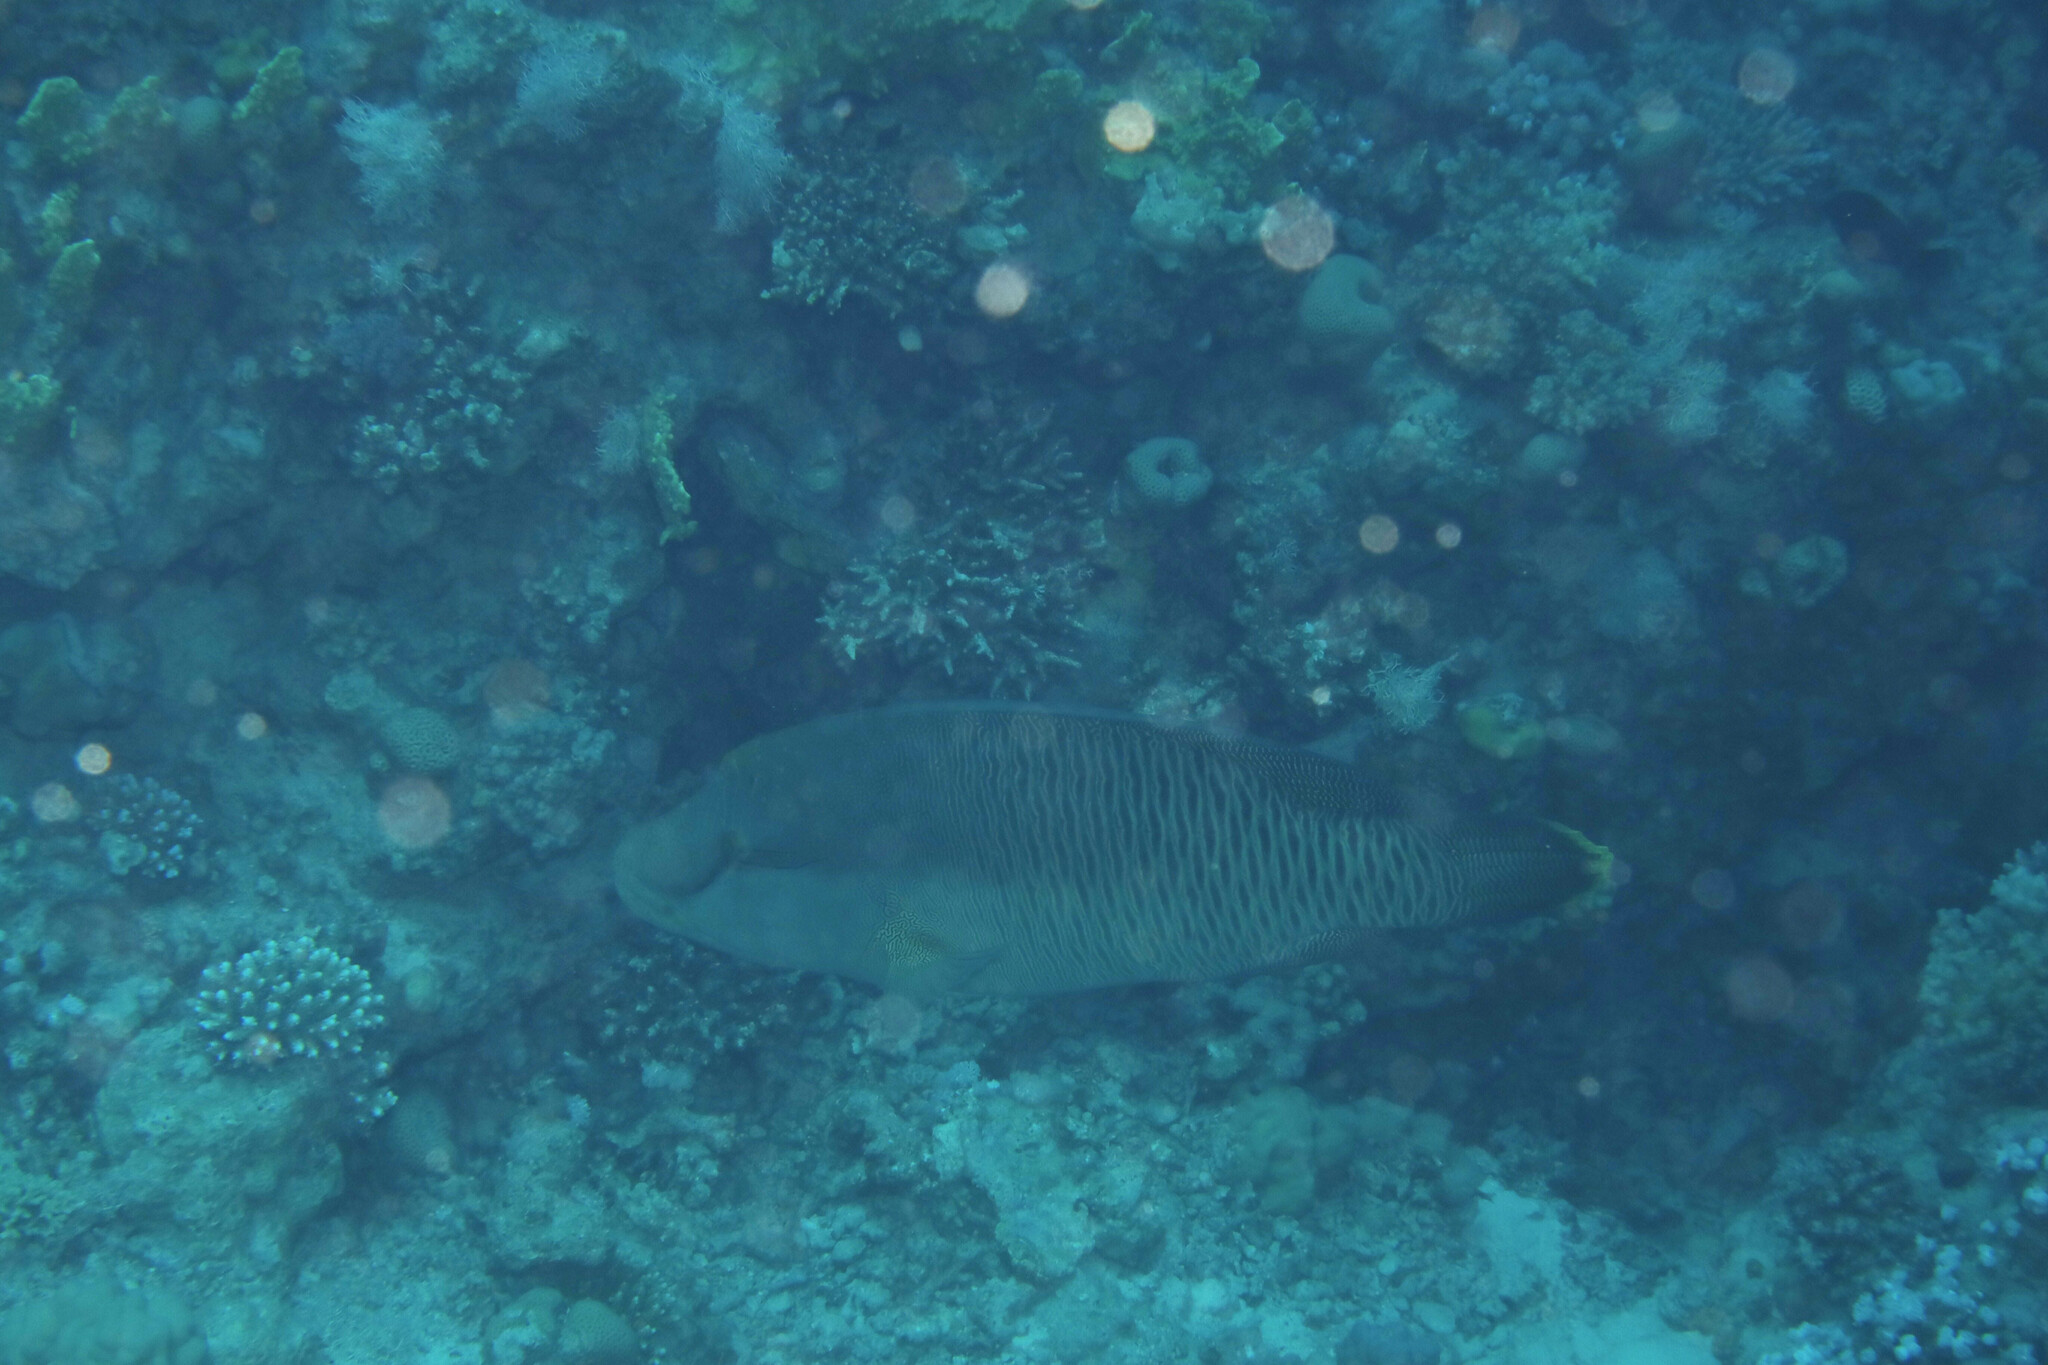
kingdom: Animalia
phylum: Chordata
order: Perciformes
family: Labridae
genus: Cheilinus
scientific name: Cheilinus undulatus
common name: Humphead wrasse
